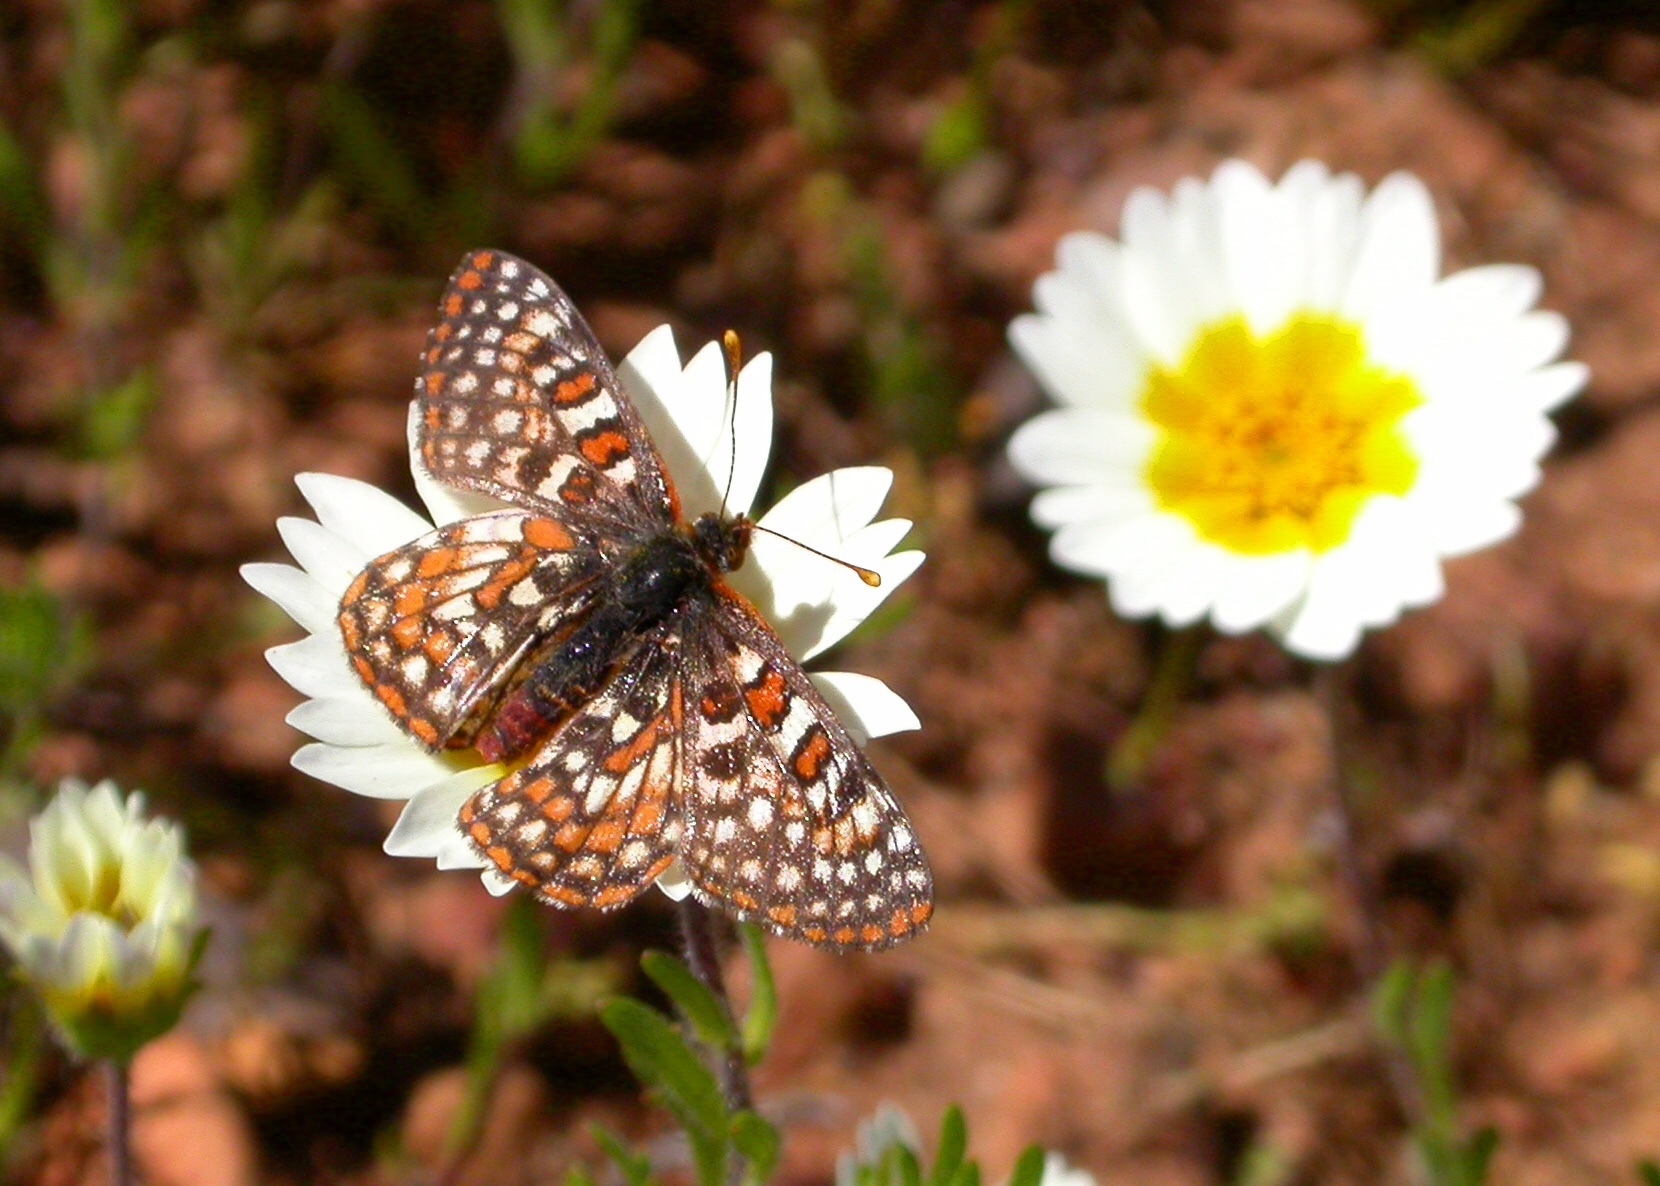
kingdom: Animalia
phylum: Arthropoda
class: Insecta
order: Lepidoptera
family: Nymphalidae
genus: Occidryas
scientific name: Occidryas chalcedona
